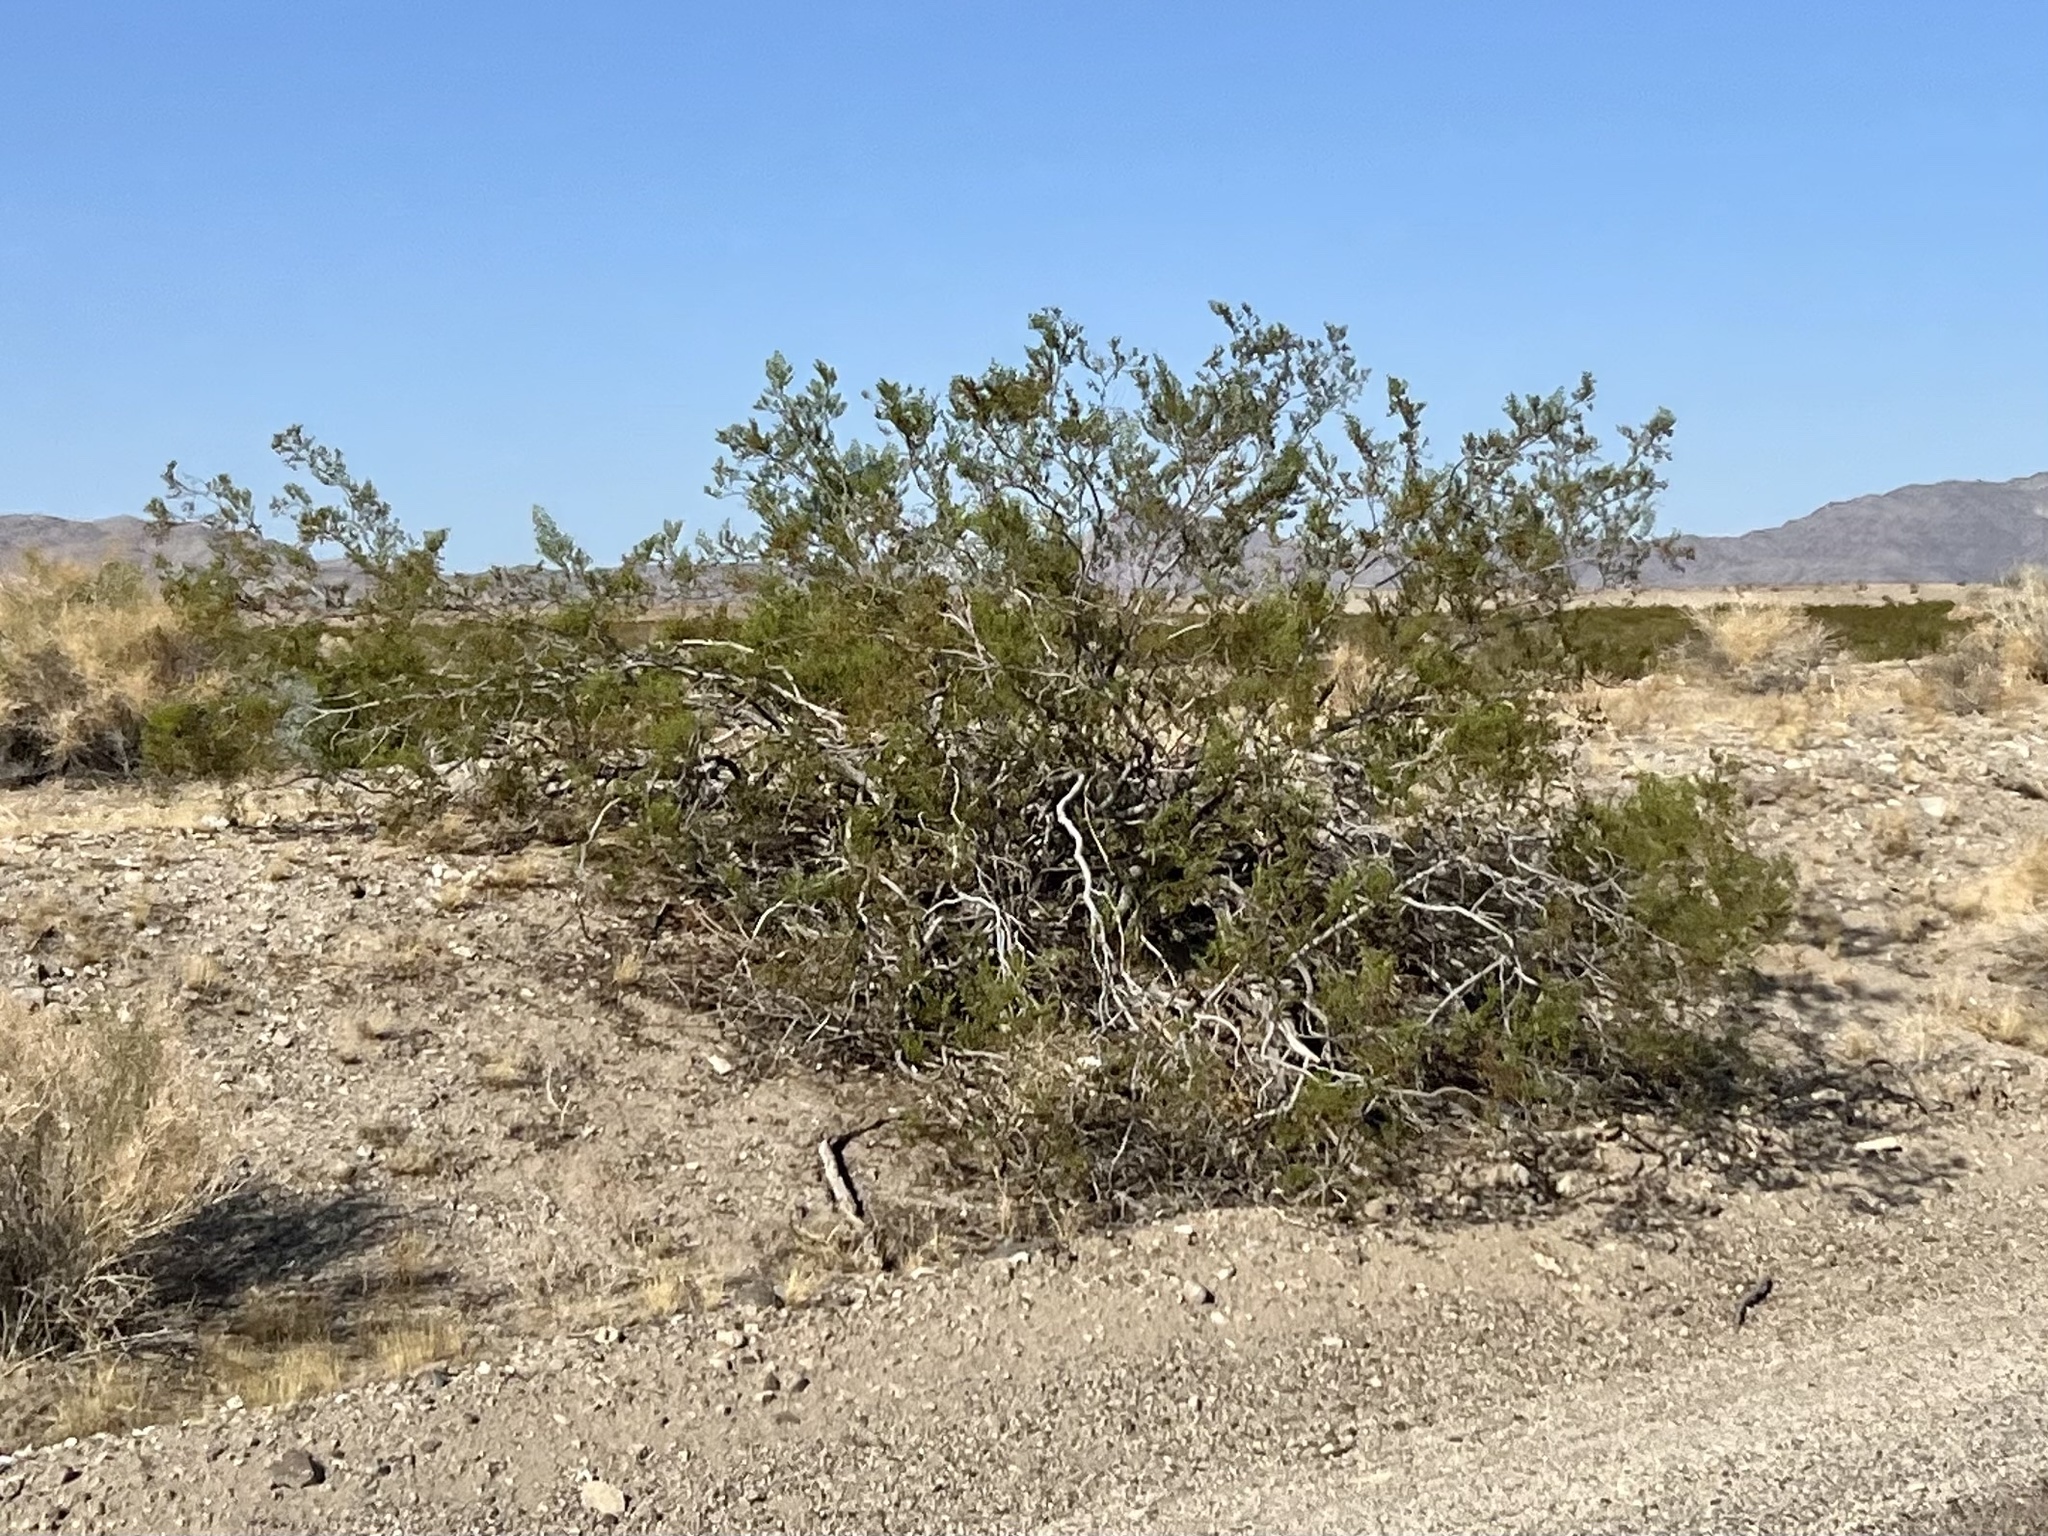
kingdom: Plantae
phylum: Tracheophyta
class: Magnoliopsida
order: Zygophyllales
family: Zygophyllaceae
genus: Larrea
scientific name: Larrea tridentata
